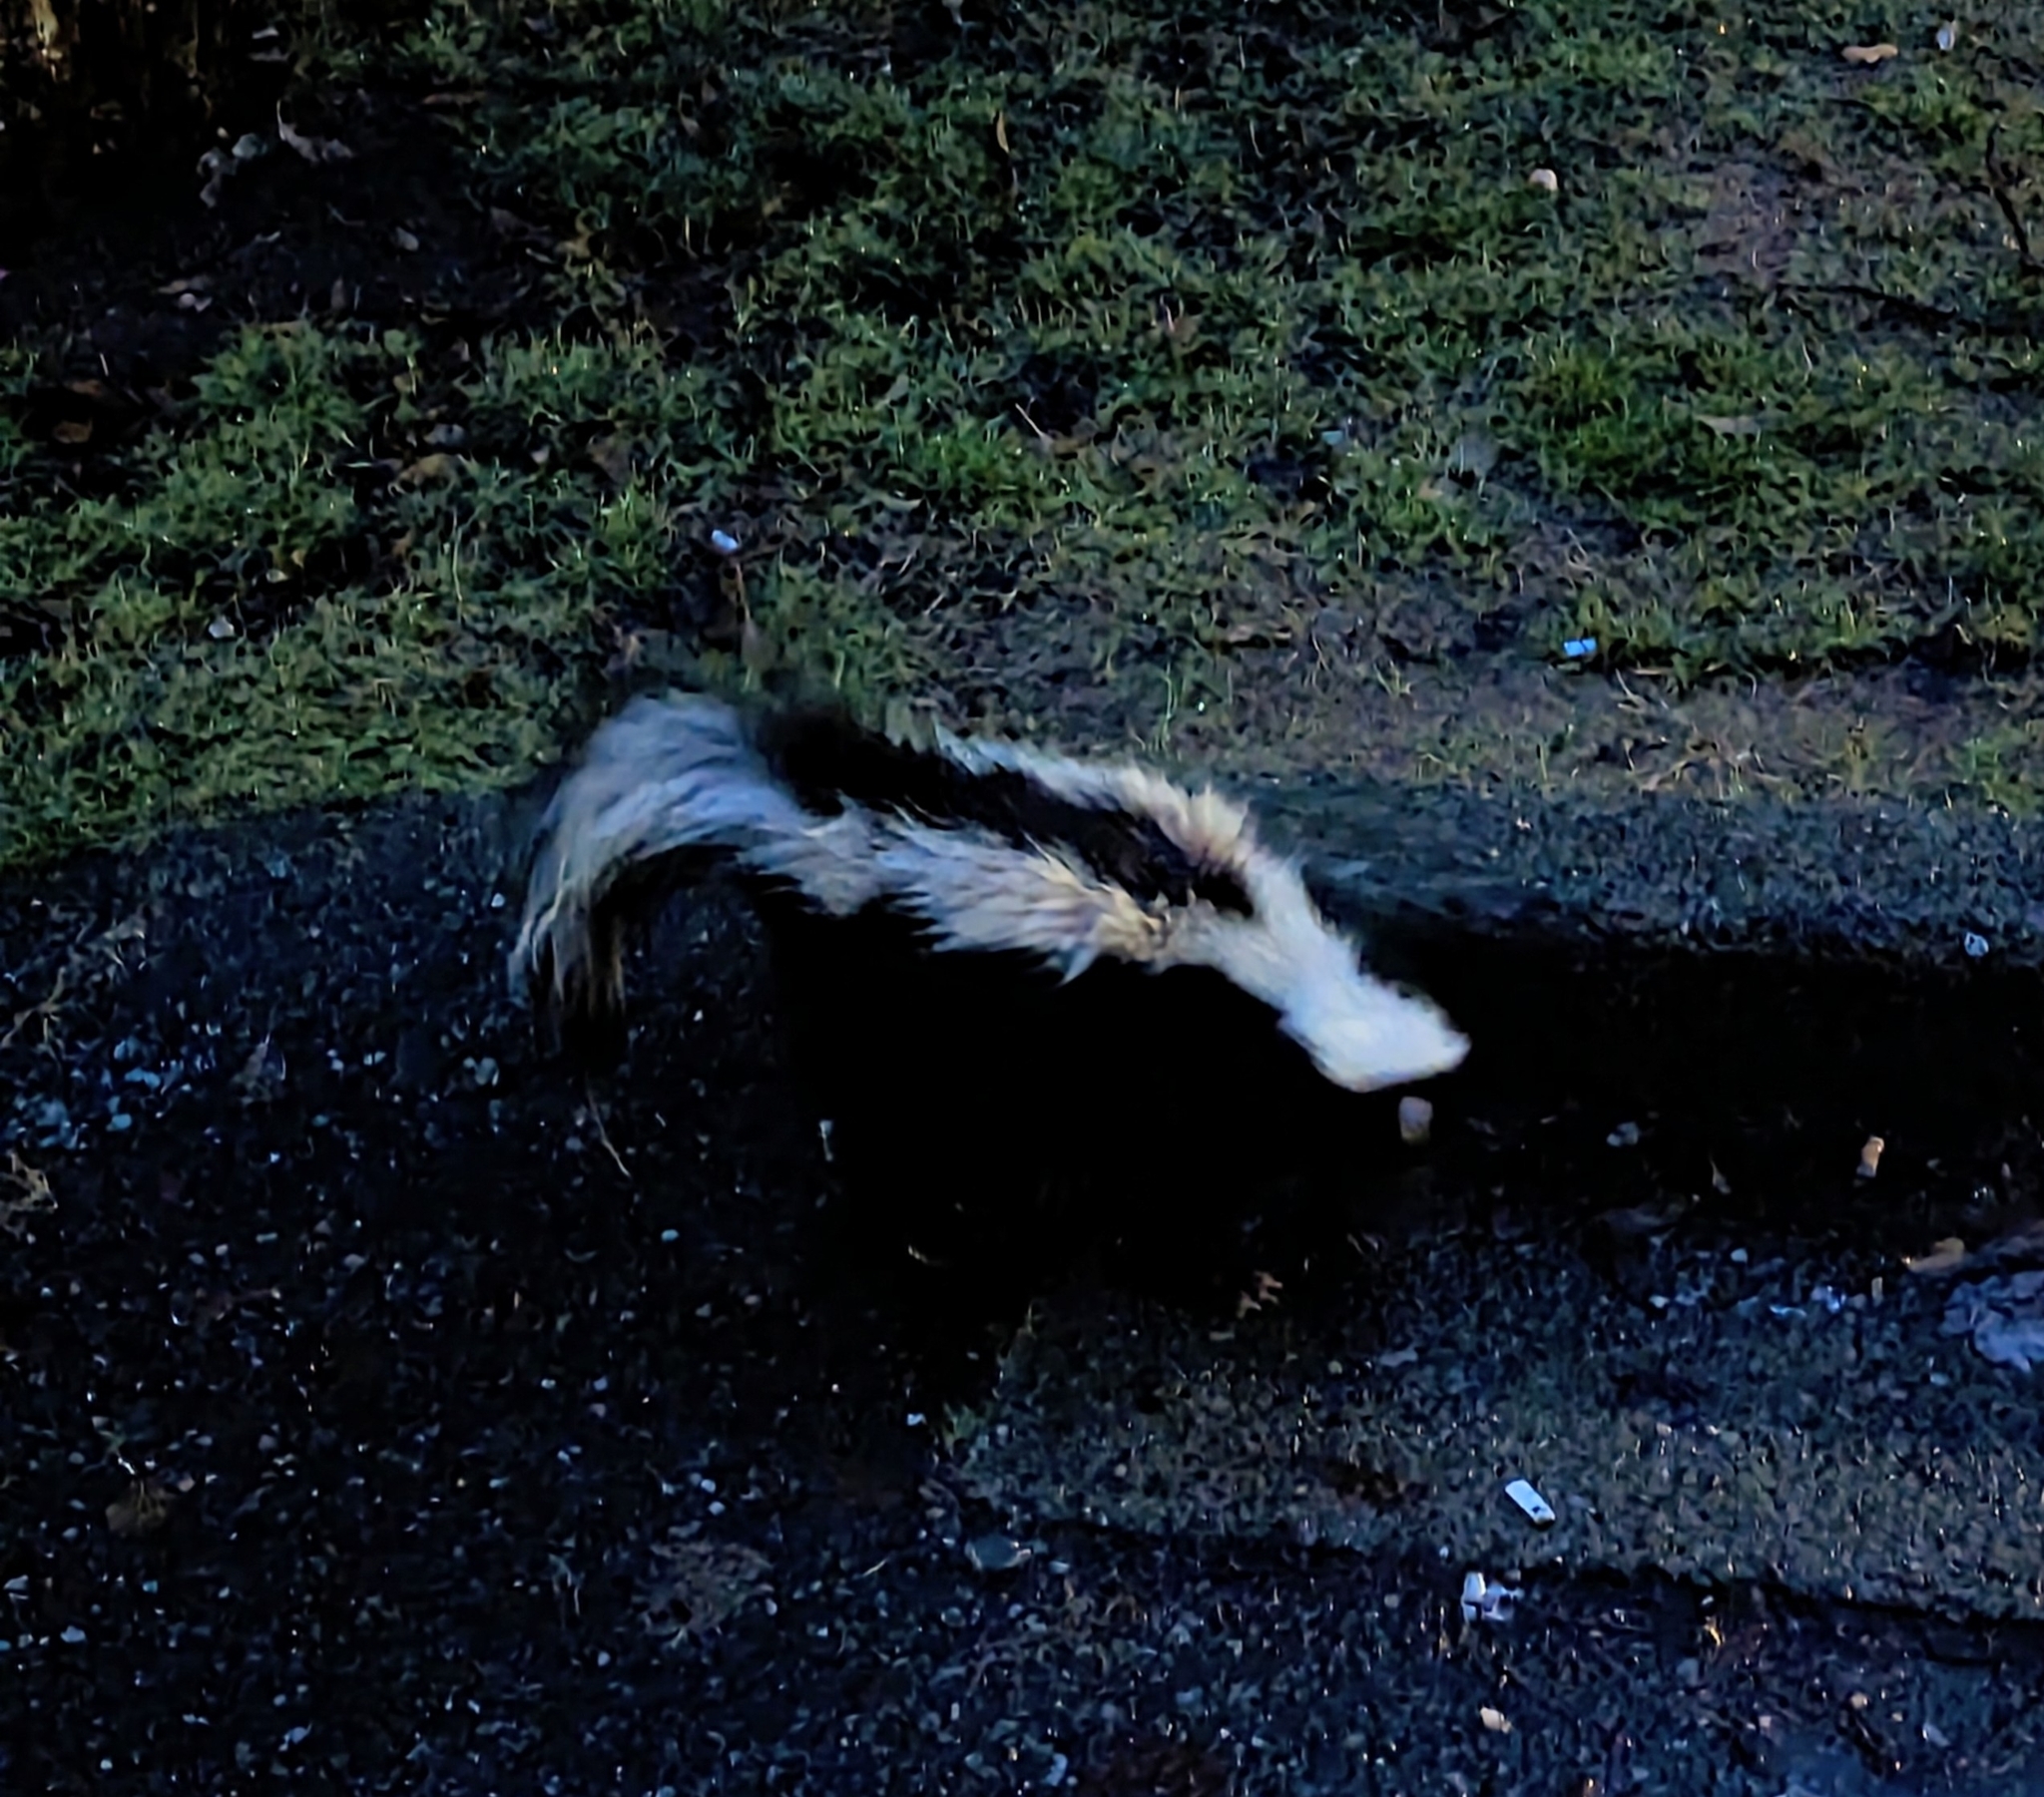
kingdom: Animalia
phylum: Chordata
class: Mammalia
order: Carnivora
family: Mephitidae
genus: Mephitis
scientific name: Mephitis mephitis
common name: Striped skunk
